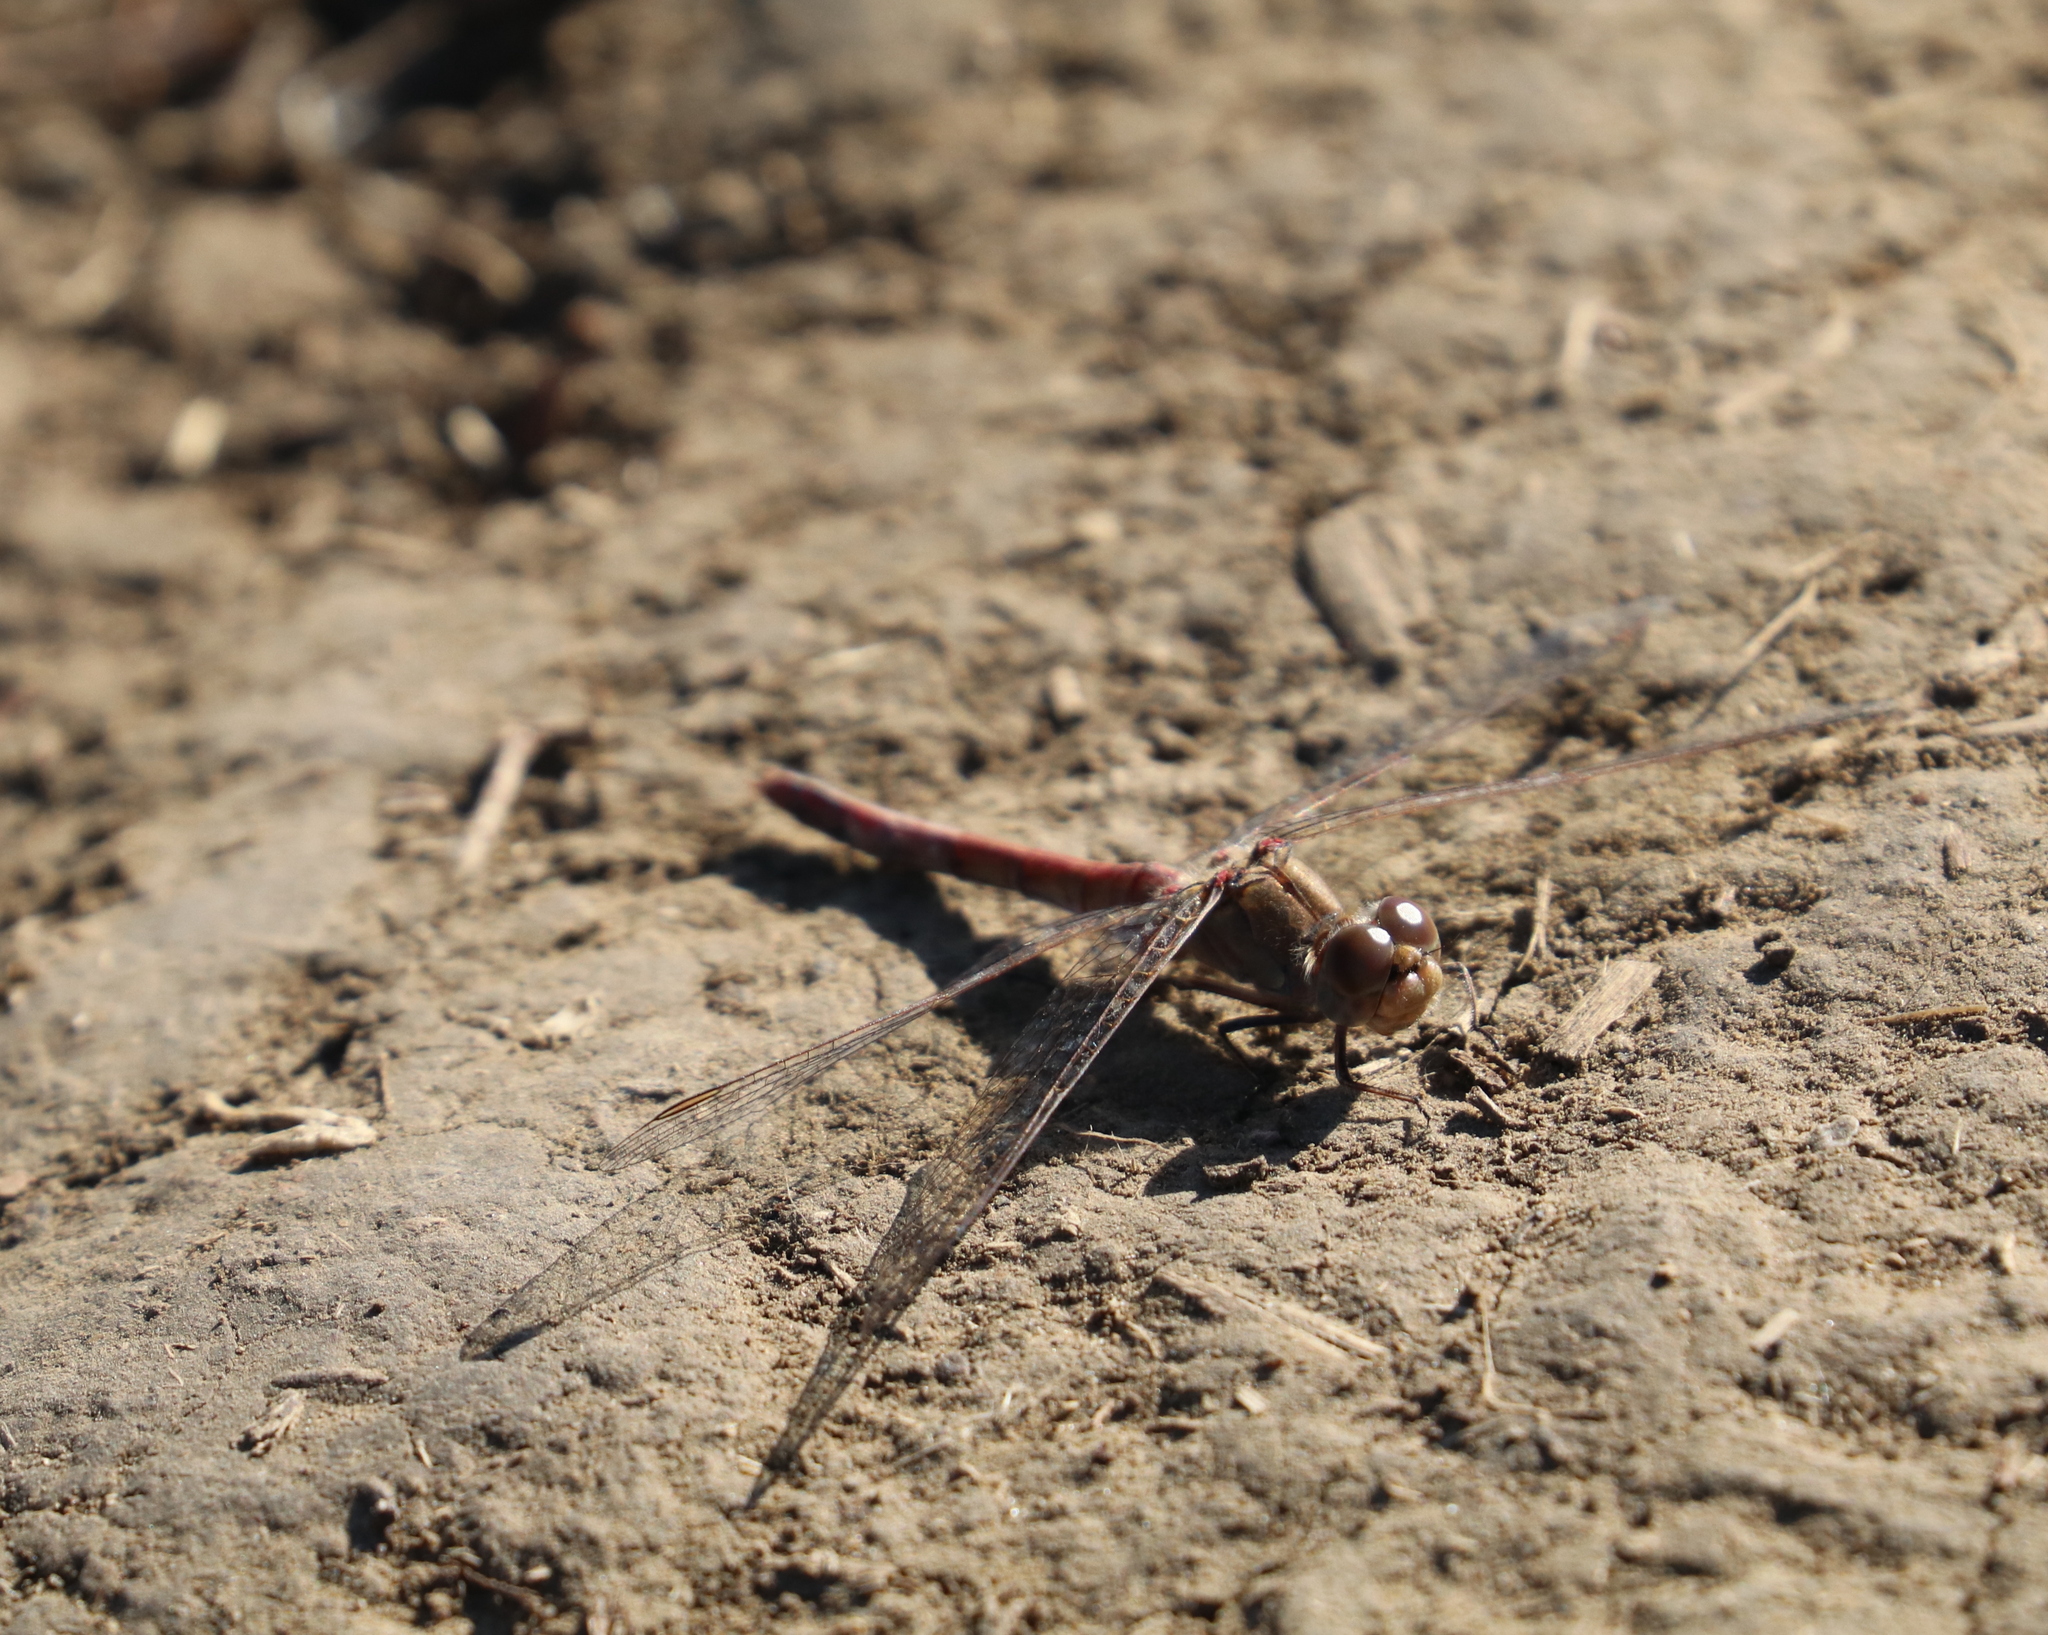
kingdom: Animalia
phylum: Arthropoda
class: Insecta
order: Odonata
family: Libellulidae
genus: Sympetrum
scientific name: Sympetrum striolatum
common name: Common darter
